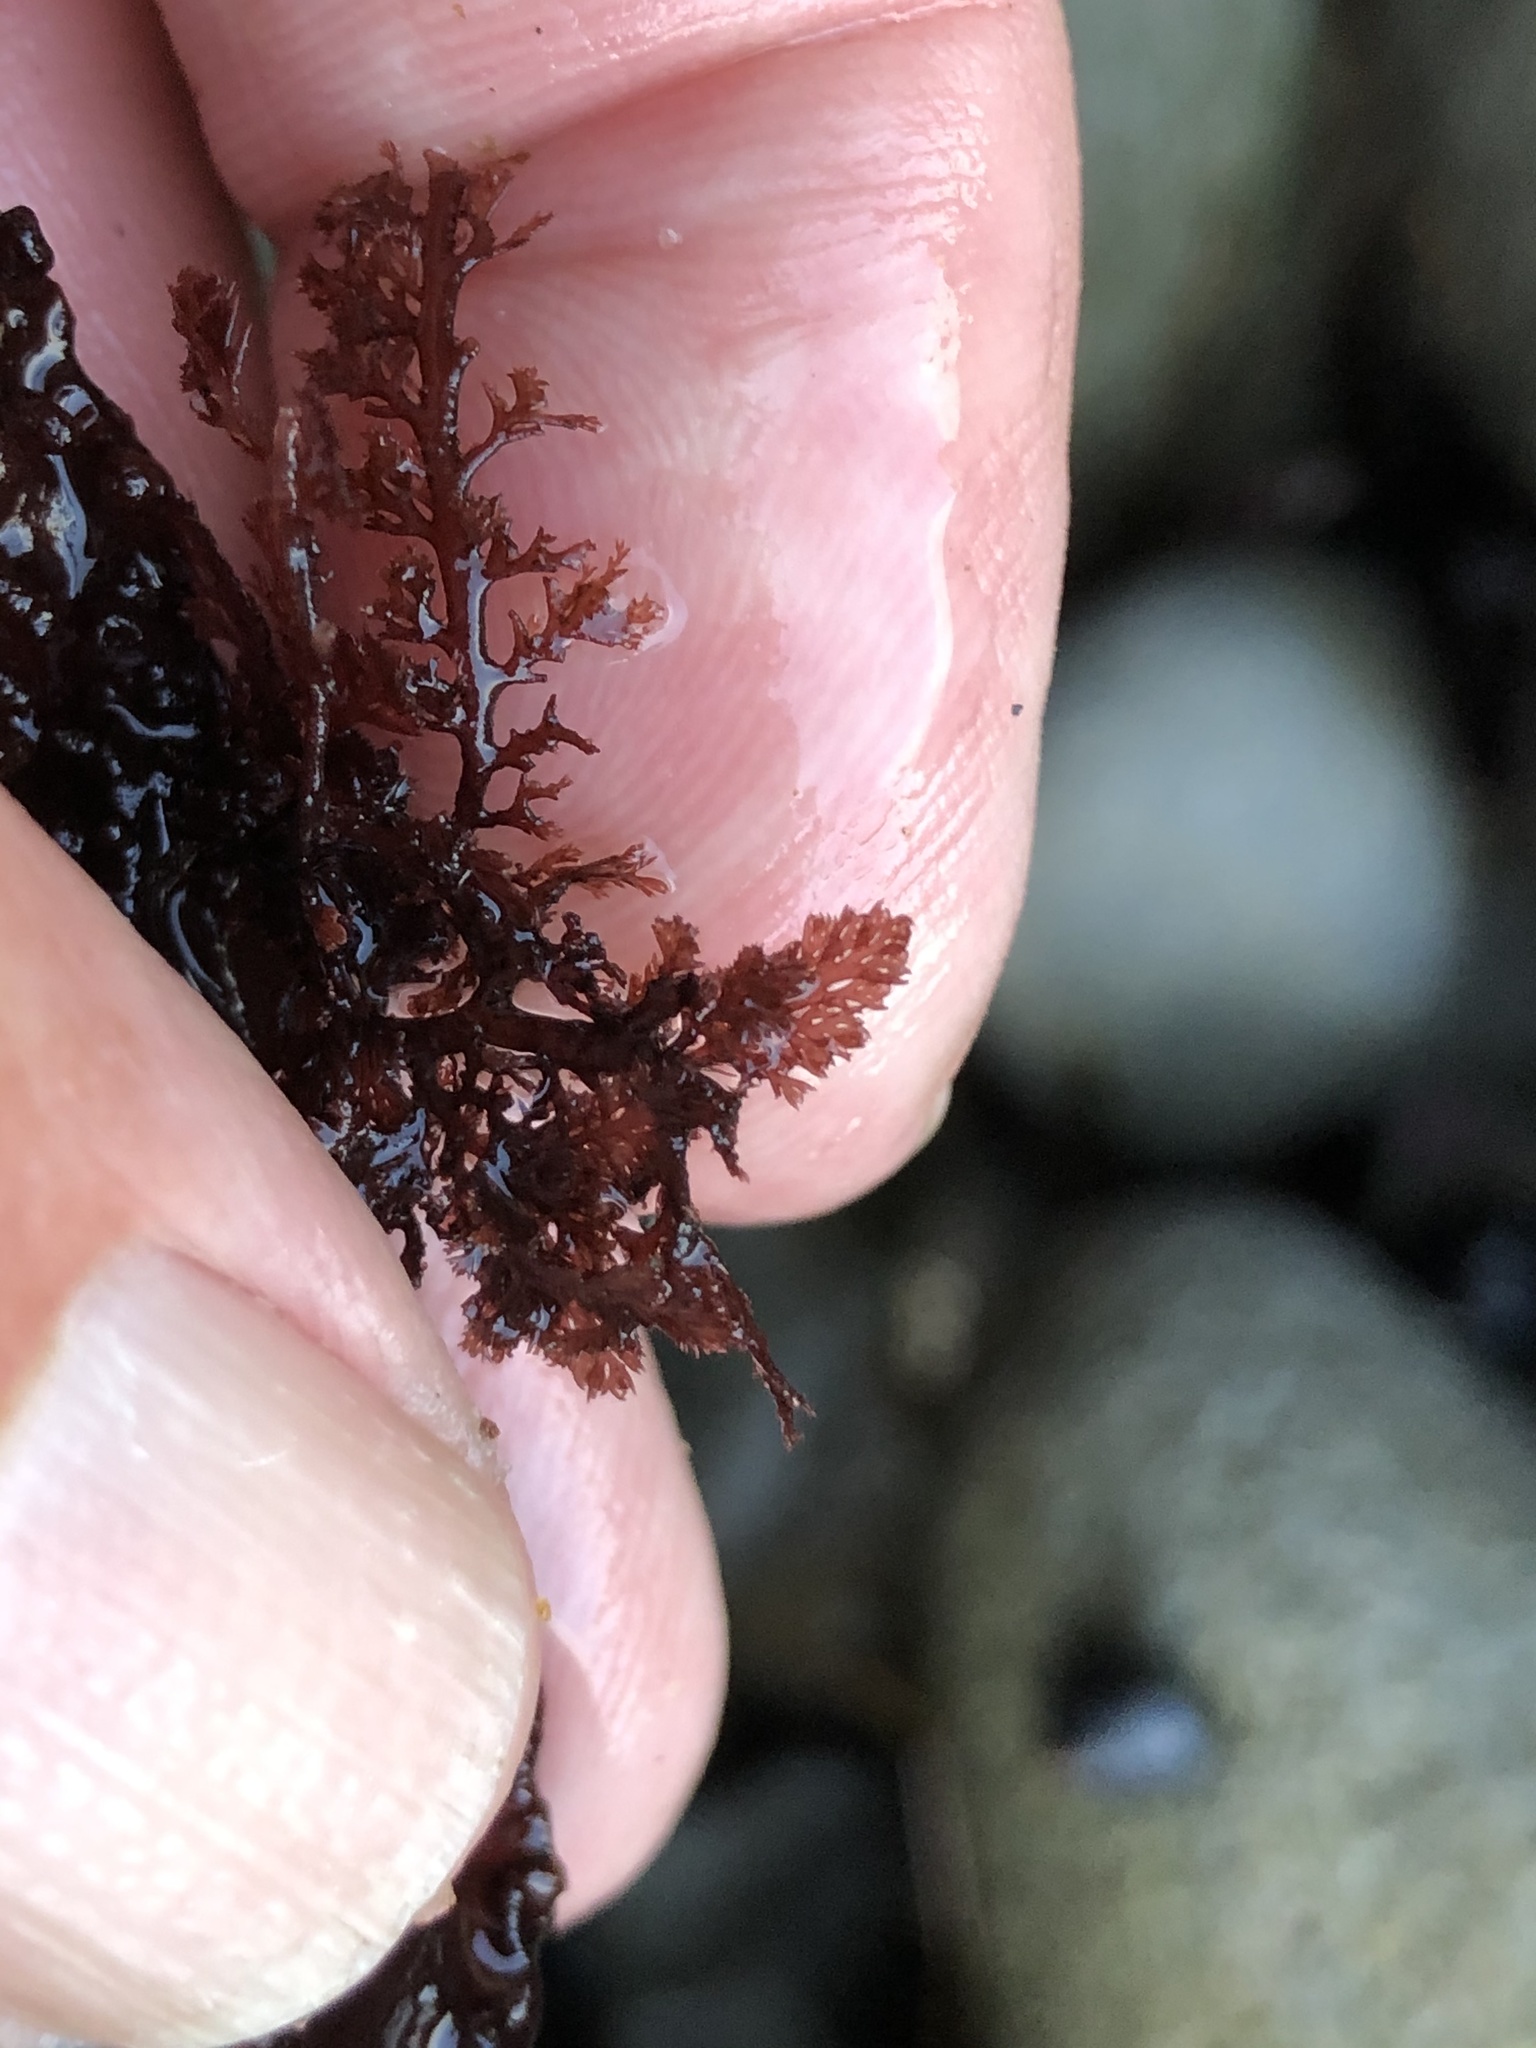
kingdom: Plantae
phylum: Rhodophyta
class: Florideophyceae
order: Ceramiales
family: Ceramiaceae
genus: Microcladia
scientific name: Microcladia coulteri
